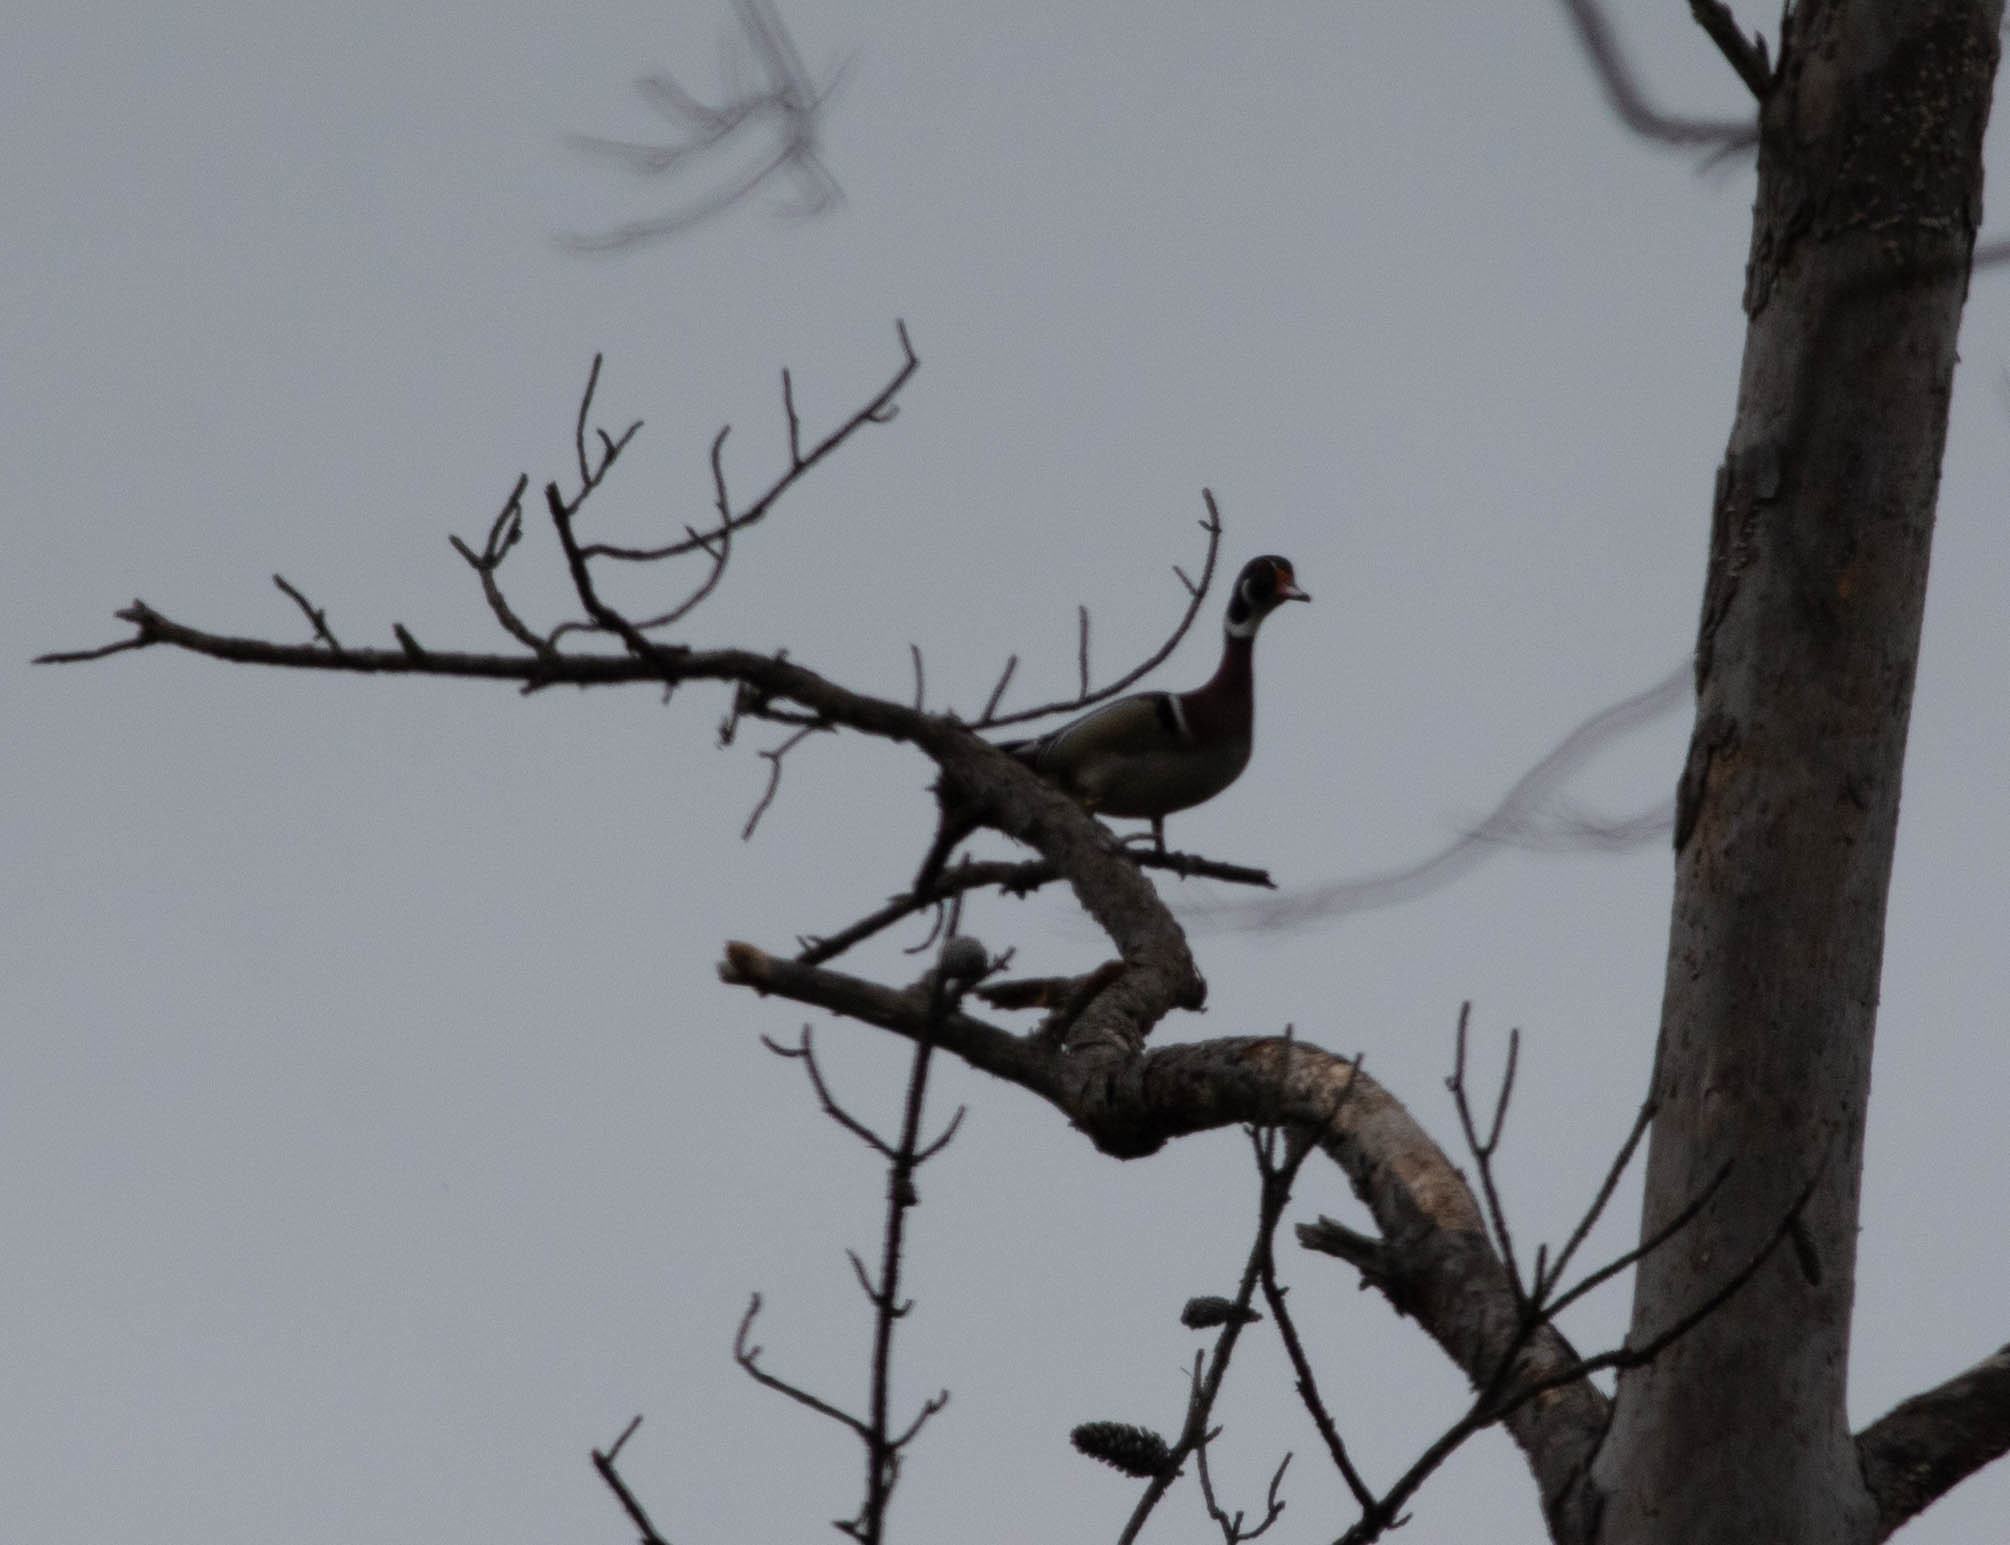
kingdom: Animalia
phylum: Chordata
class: Aves
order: Anseriformes
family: Anatidae
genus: Aix
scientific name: Aix sponsa
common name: Wood duck
